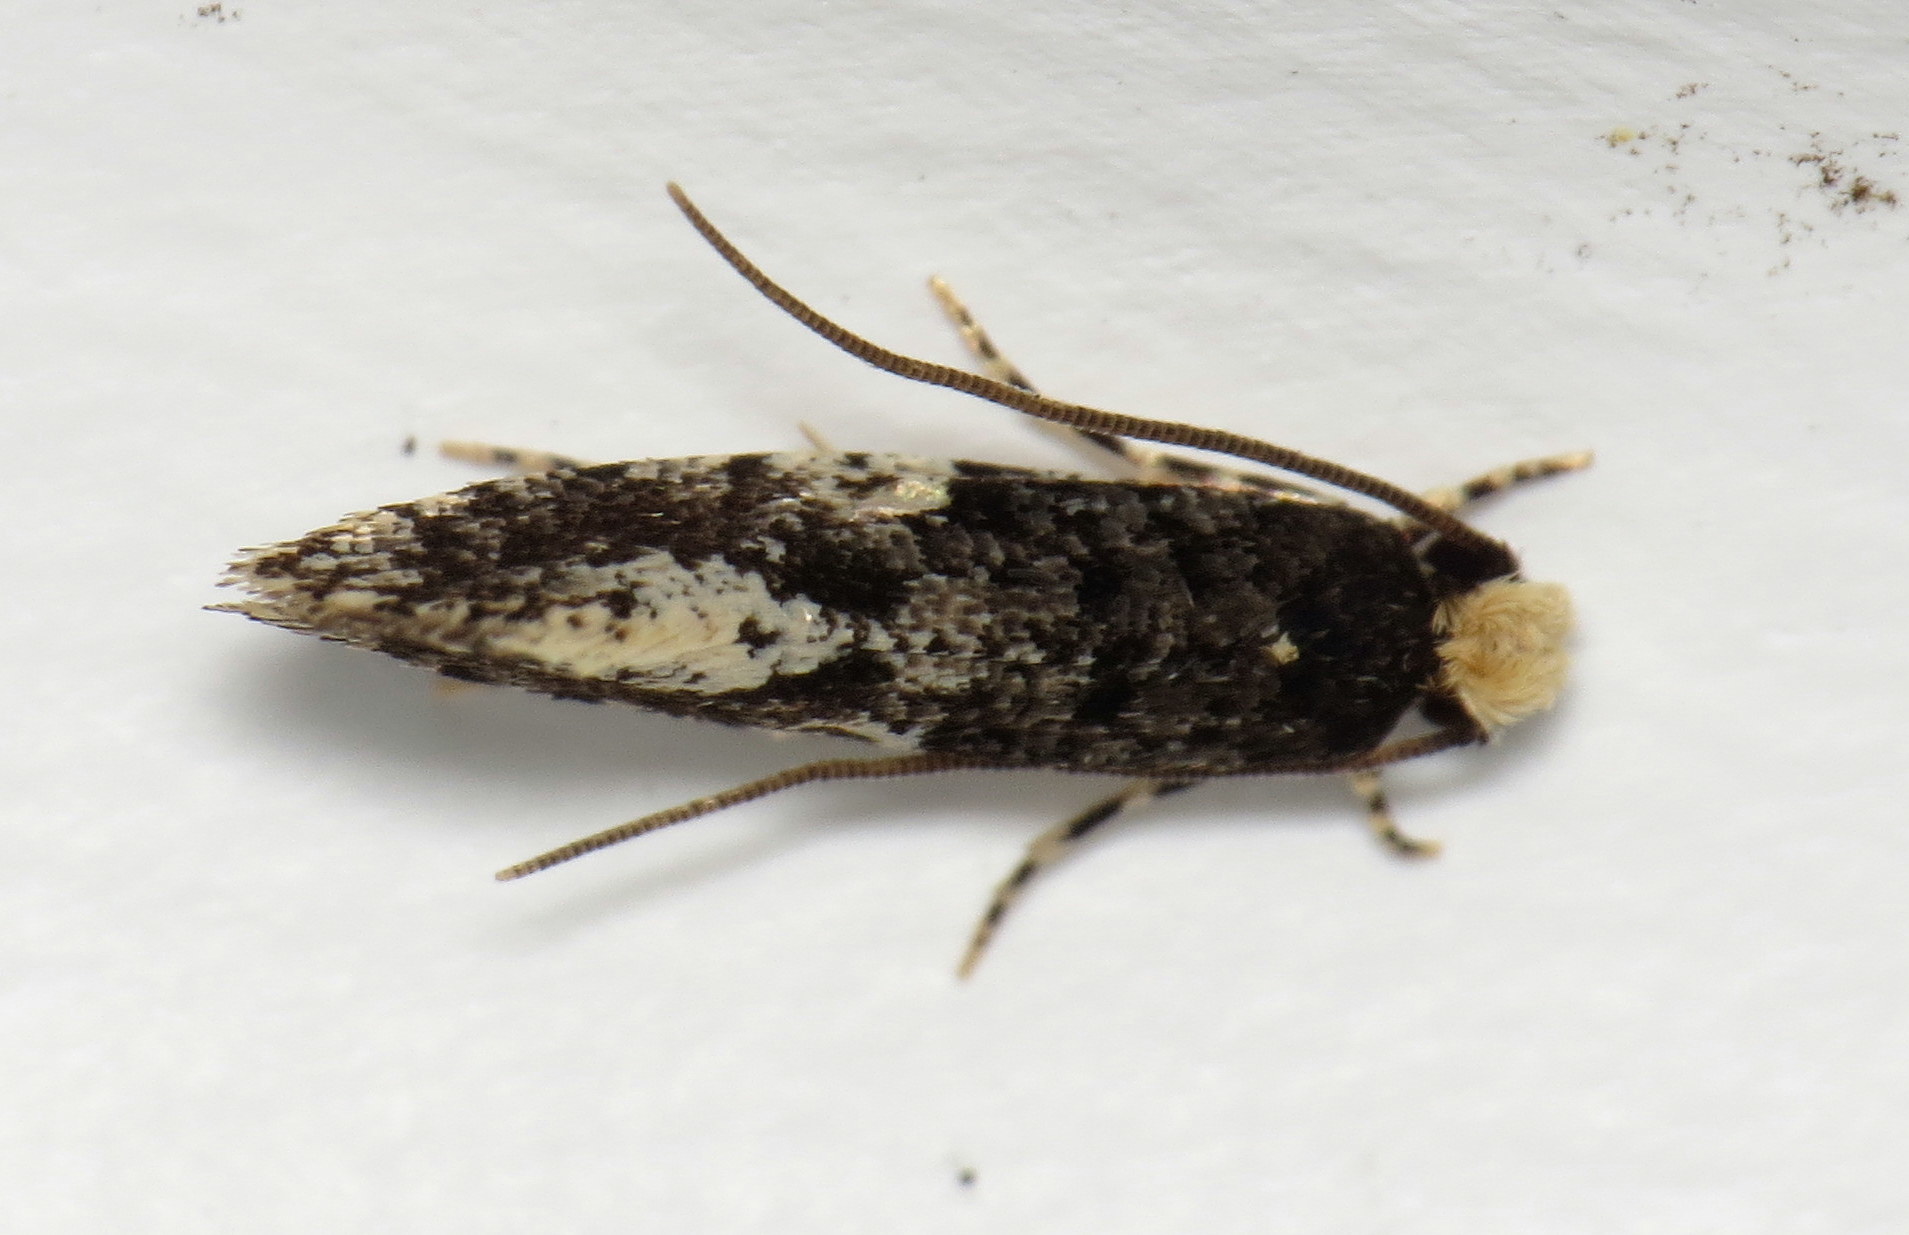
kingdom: Animalia
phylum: Arthropoda
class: Insecta
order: Lepidoptera
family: Tineidae
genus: Monopis
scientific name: Monopis marginistrigella
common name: White-blotched monopis moth
